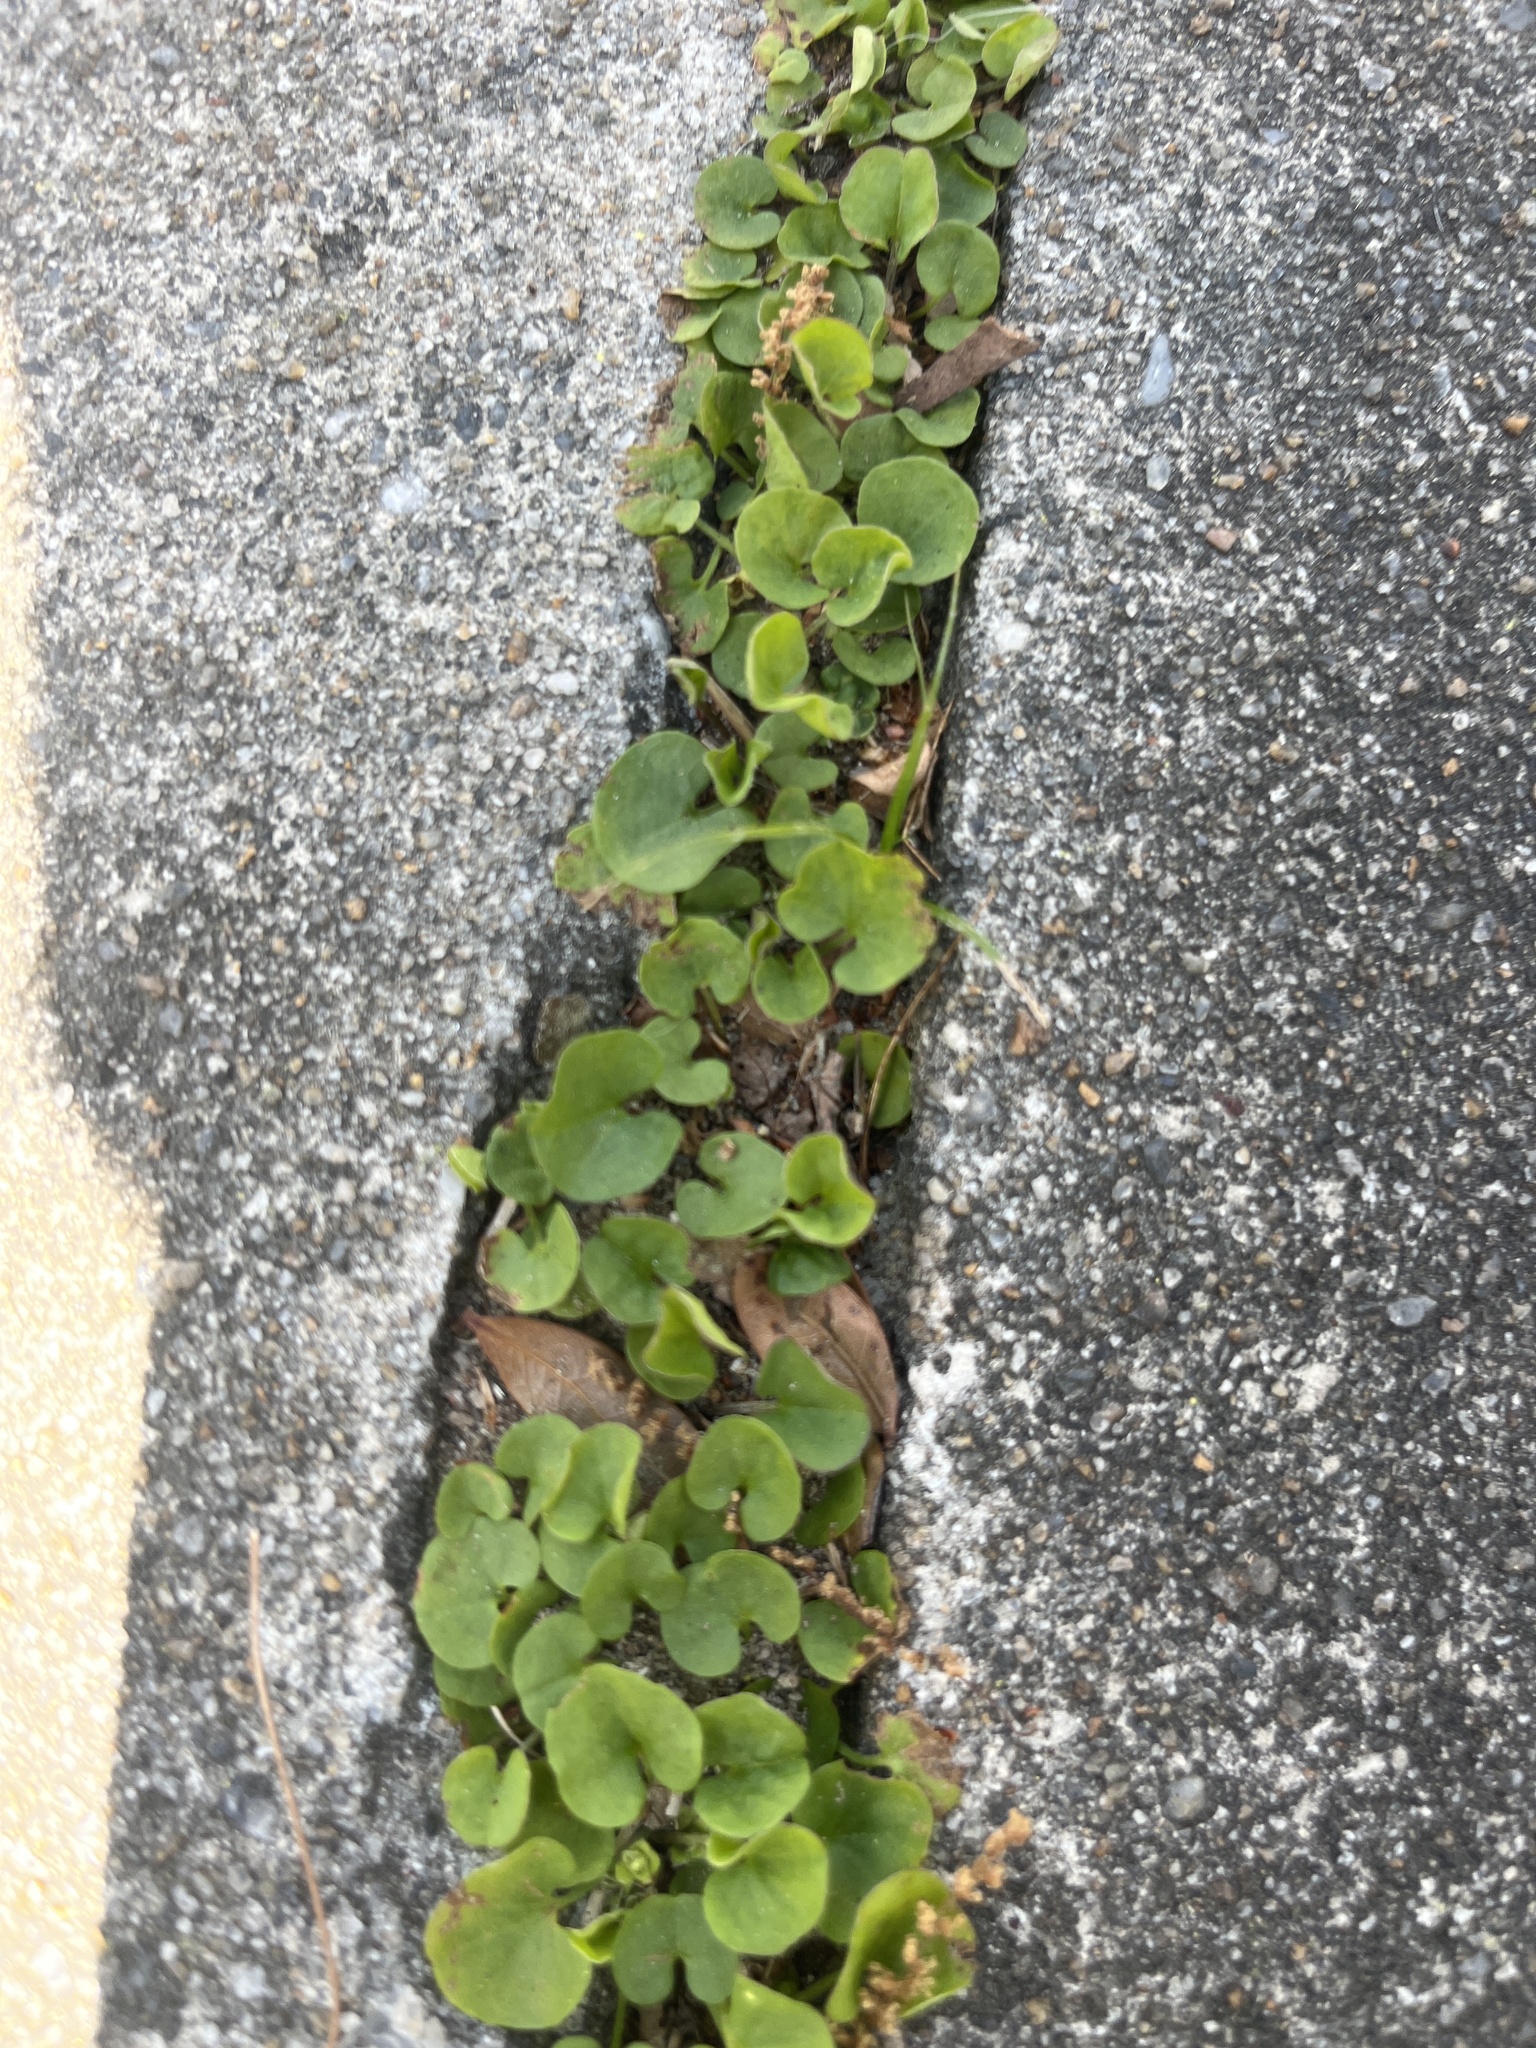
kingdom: Plantae
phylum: Tracheophyta
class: Magnoliopsida
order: Solanales
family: Convolvulaceae
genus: Dichondra
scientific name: Dichondra carolinensis
